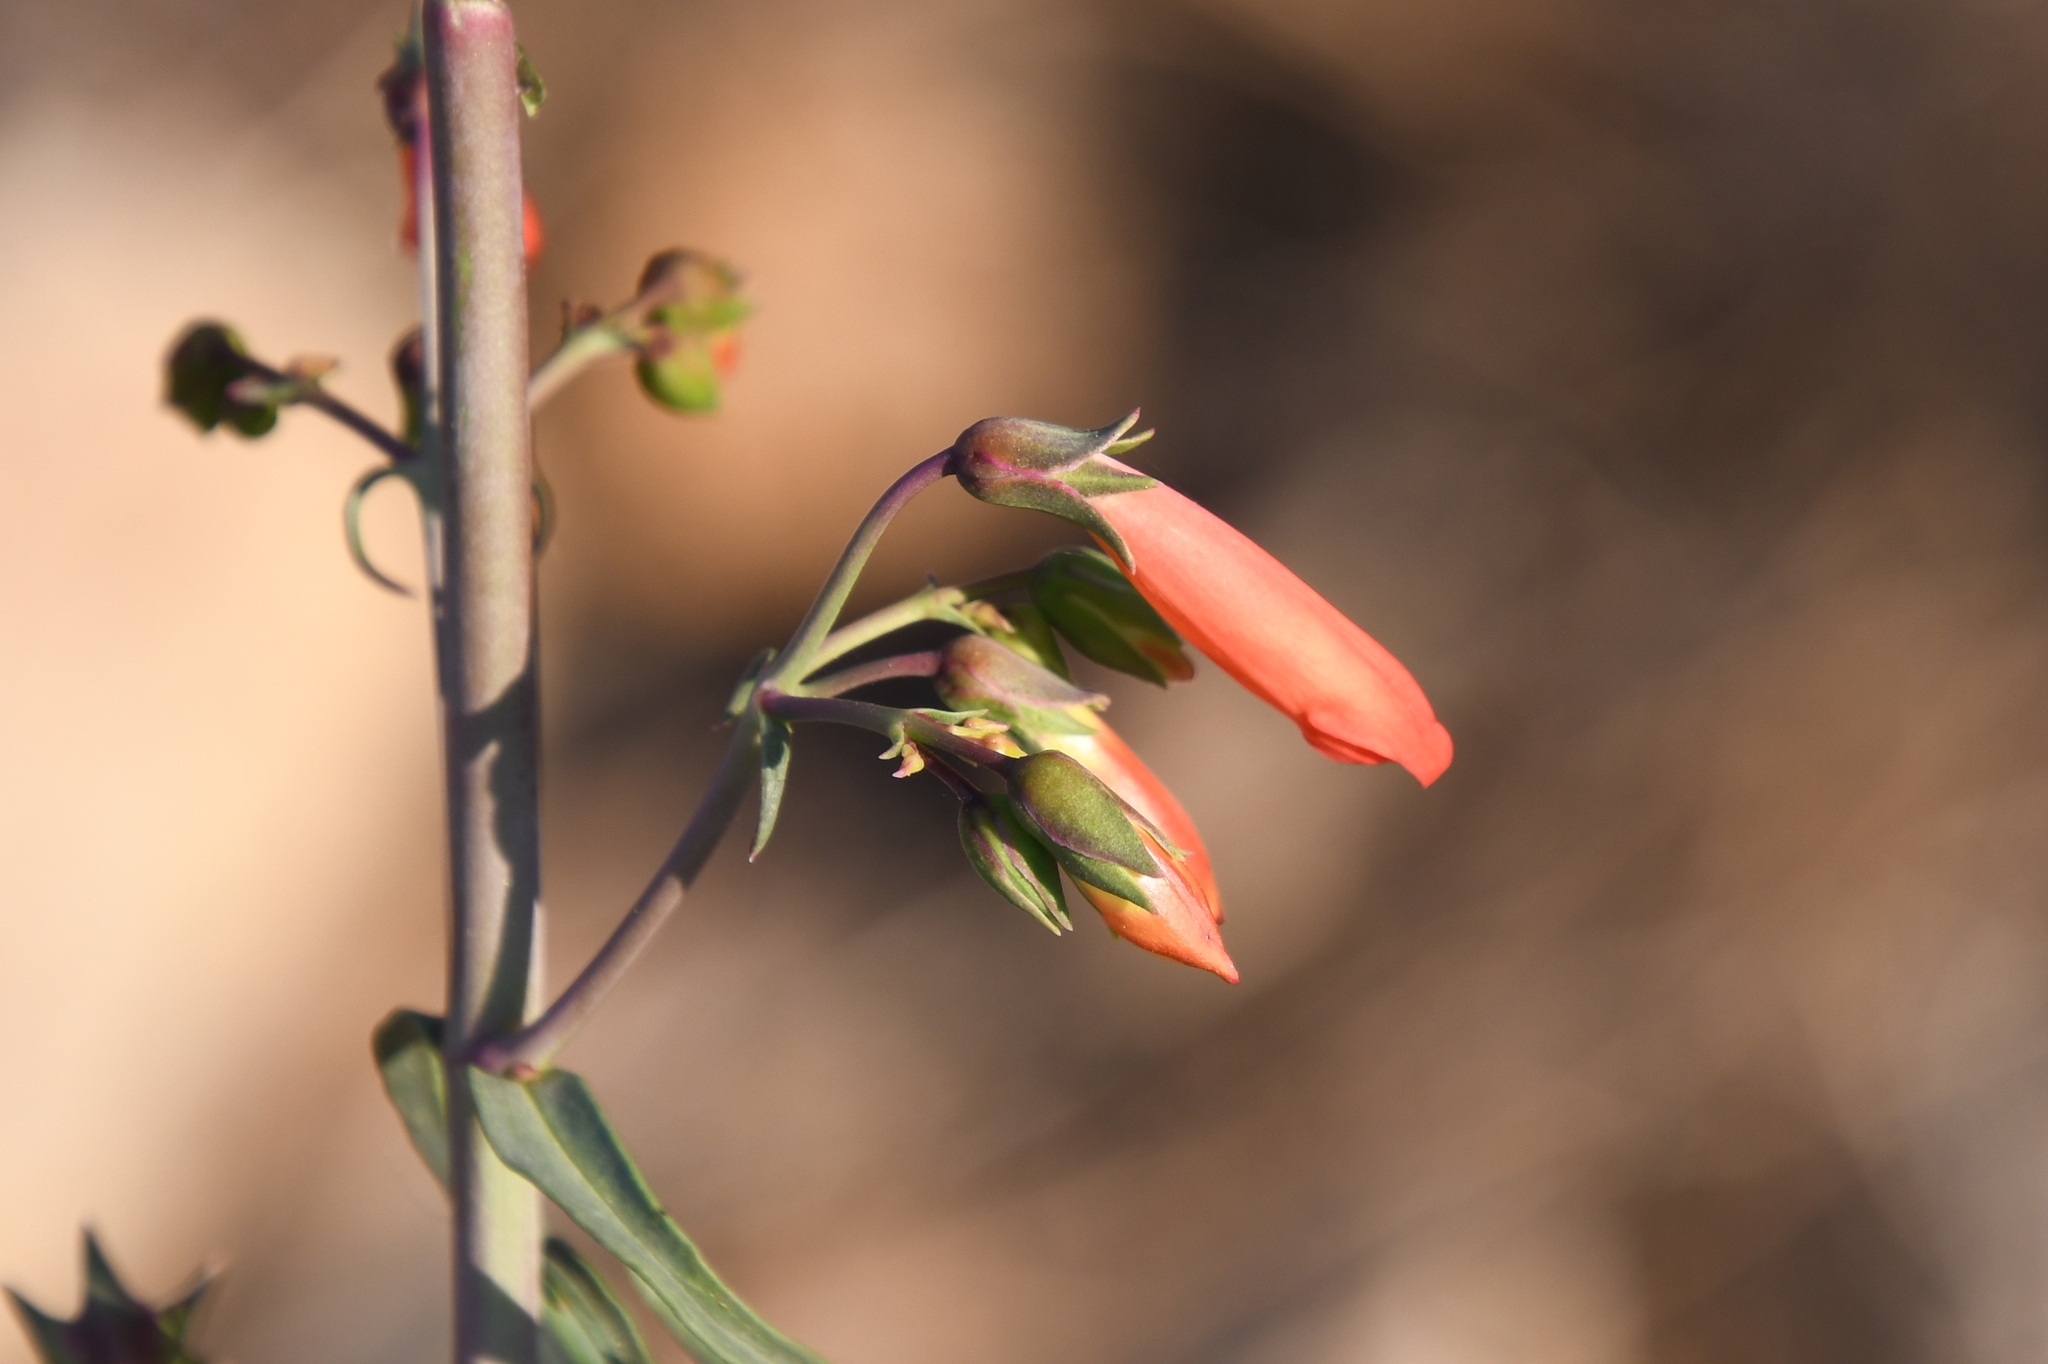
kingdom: Plantae
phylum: Tracheophyta
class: Magnoliopsida
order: Lamiales
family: Plantaginaceae
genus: Penstemon
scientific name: Penstemon barbatus
